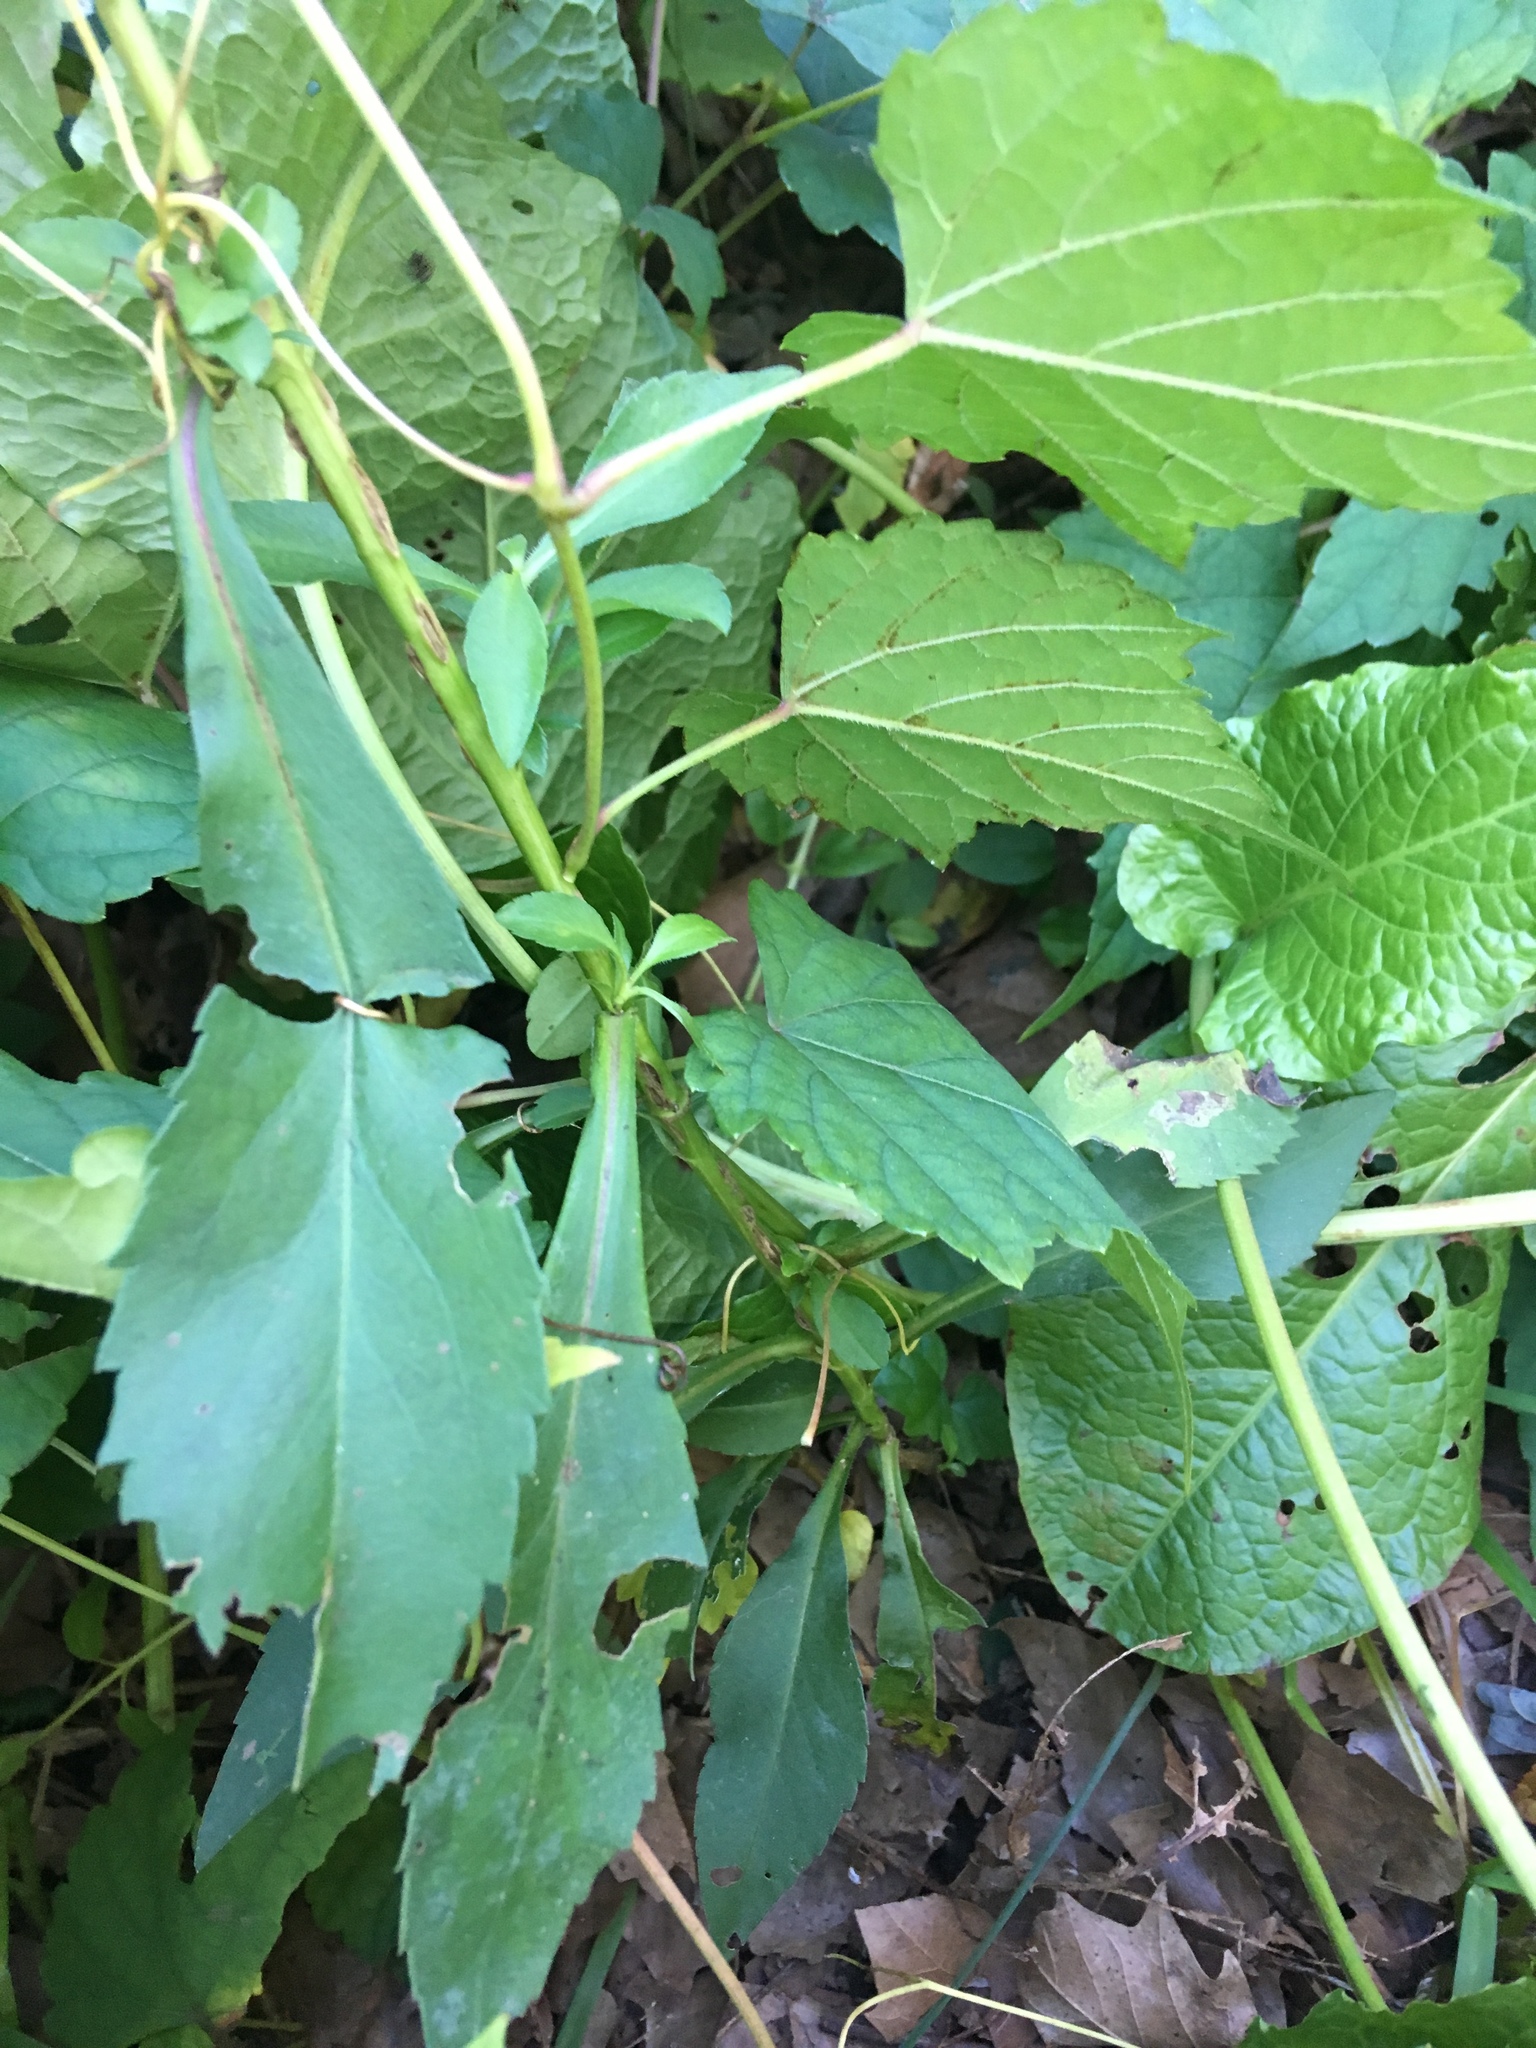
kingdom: Plantae
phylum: Tracheophyta
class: Magnoliopsida
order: Asterales
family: Asteraceae
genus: Symphyotrichum
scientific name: Symphyotrichum laeve
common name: Glaucous aster
